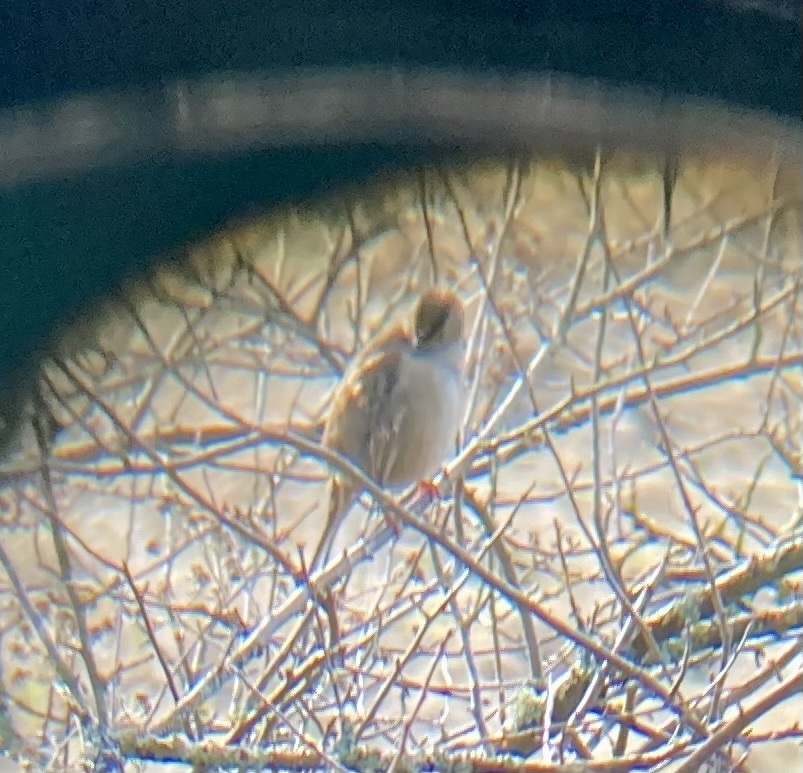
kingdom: Animalia
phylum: Chordata
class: Aves
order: Passeriformes
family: Passerellidae
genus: Zonotrichia
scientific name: Zonotrichia atricapilla
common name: Golden-crowned sparrow
